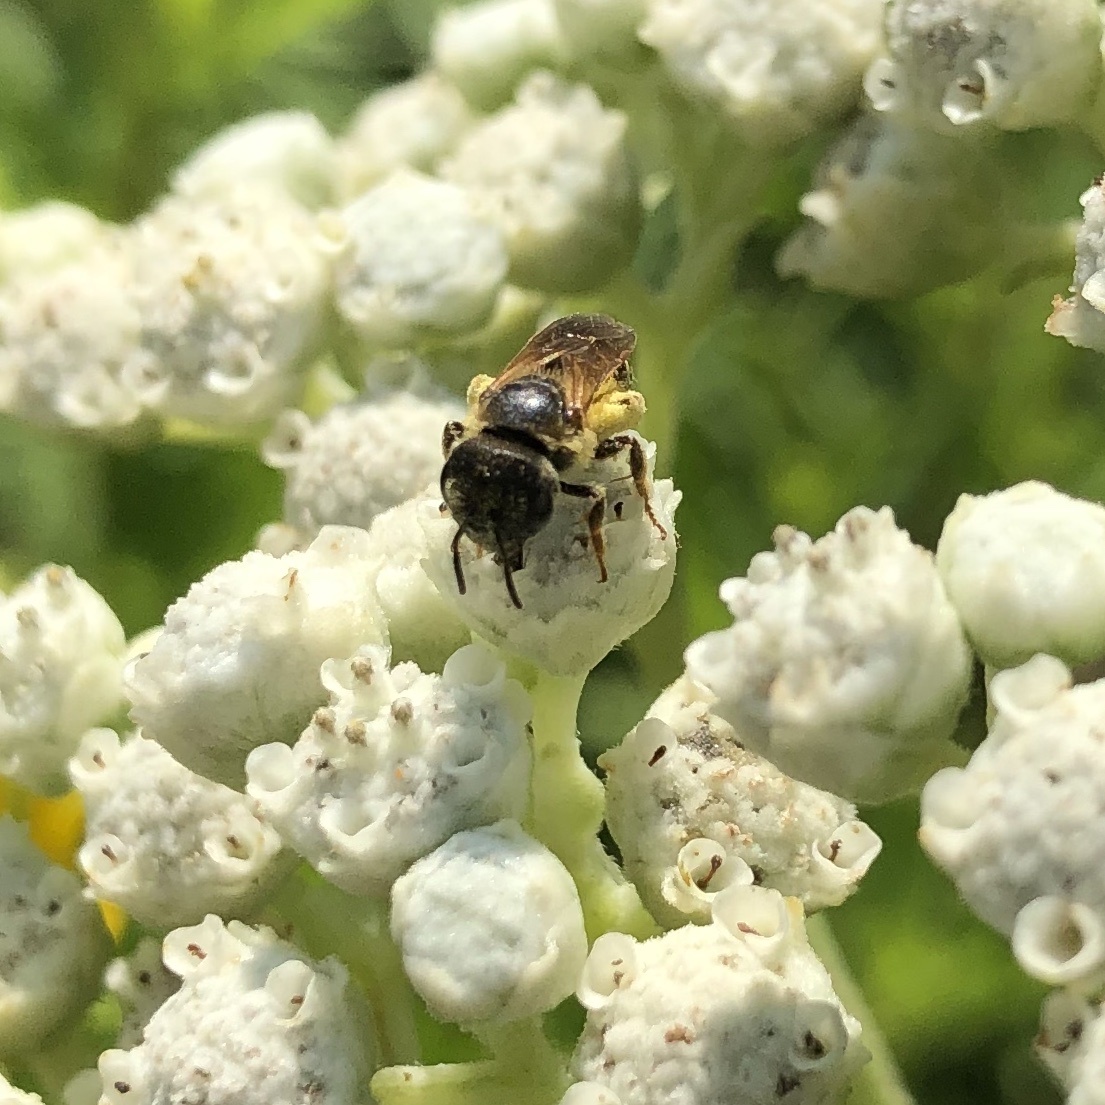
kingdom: Animalia
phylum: Arthropoda
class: Insecta
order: Hymenoptera
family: Halictidae
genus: Halictus
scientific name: Halictus ligatus
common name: Ligated furrow bee
